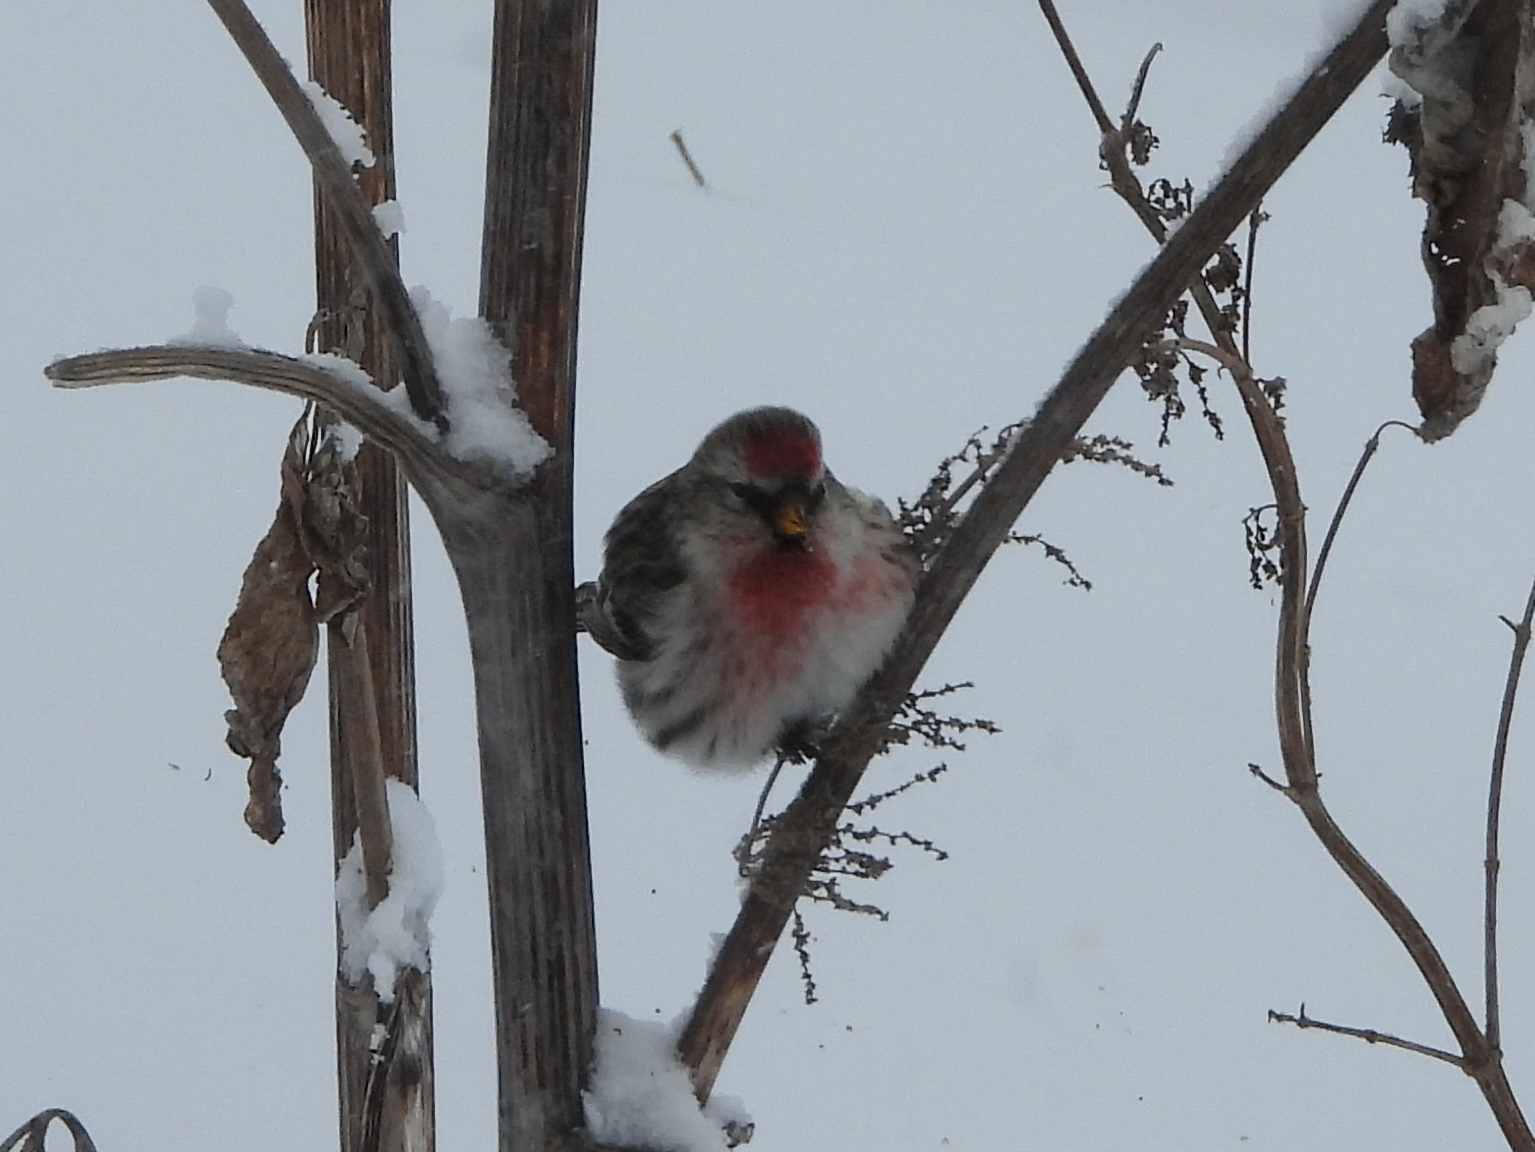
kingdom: Animalia
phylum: Chordata
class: Aves
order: Passeriformes
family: Fringillidae
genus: Acanthis
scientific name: Acanthis flammea
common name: Common redpoll
